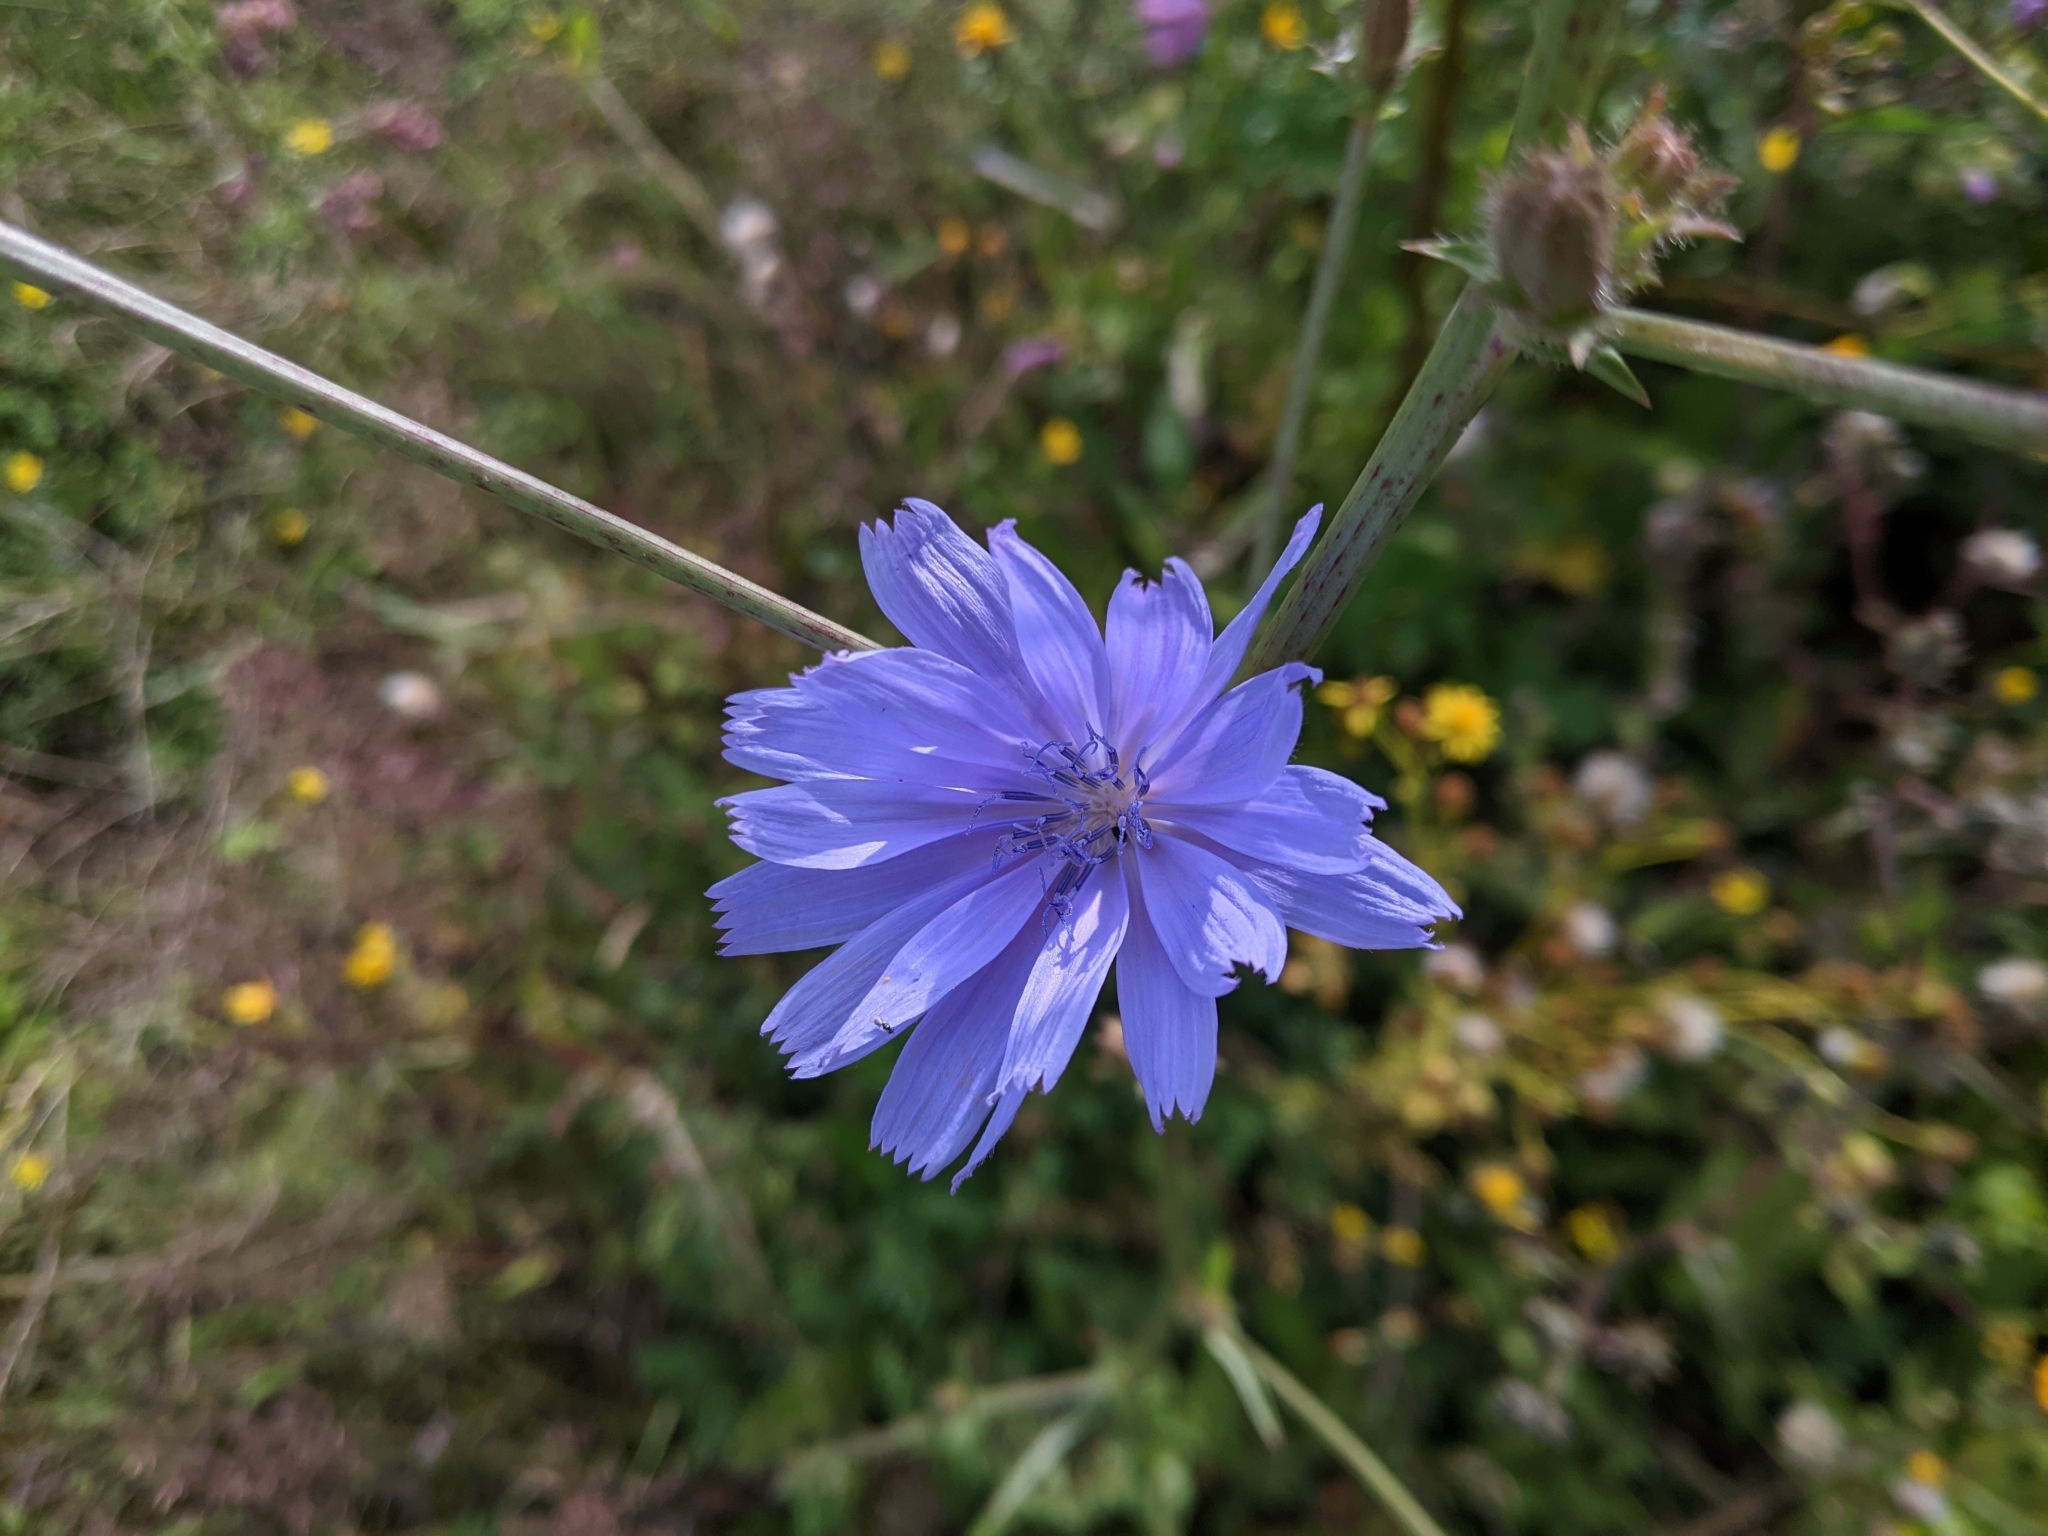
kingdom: Plantae
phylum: Tracheophyta
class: Magnoliopsida
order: Asterales
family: Asteraceae
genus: Cichorium
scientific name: Cichorium intybus
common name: Chicory
